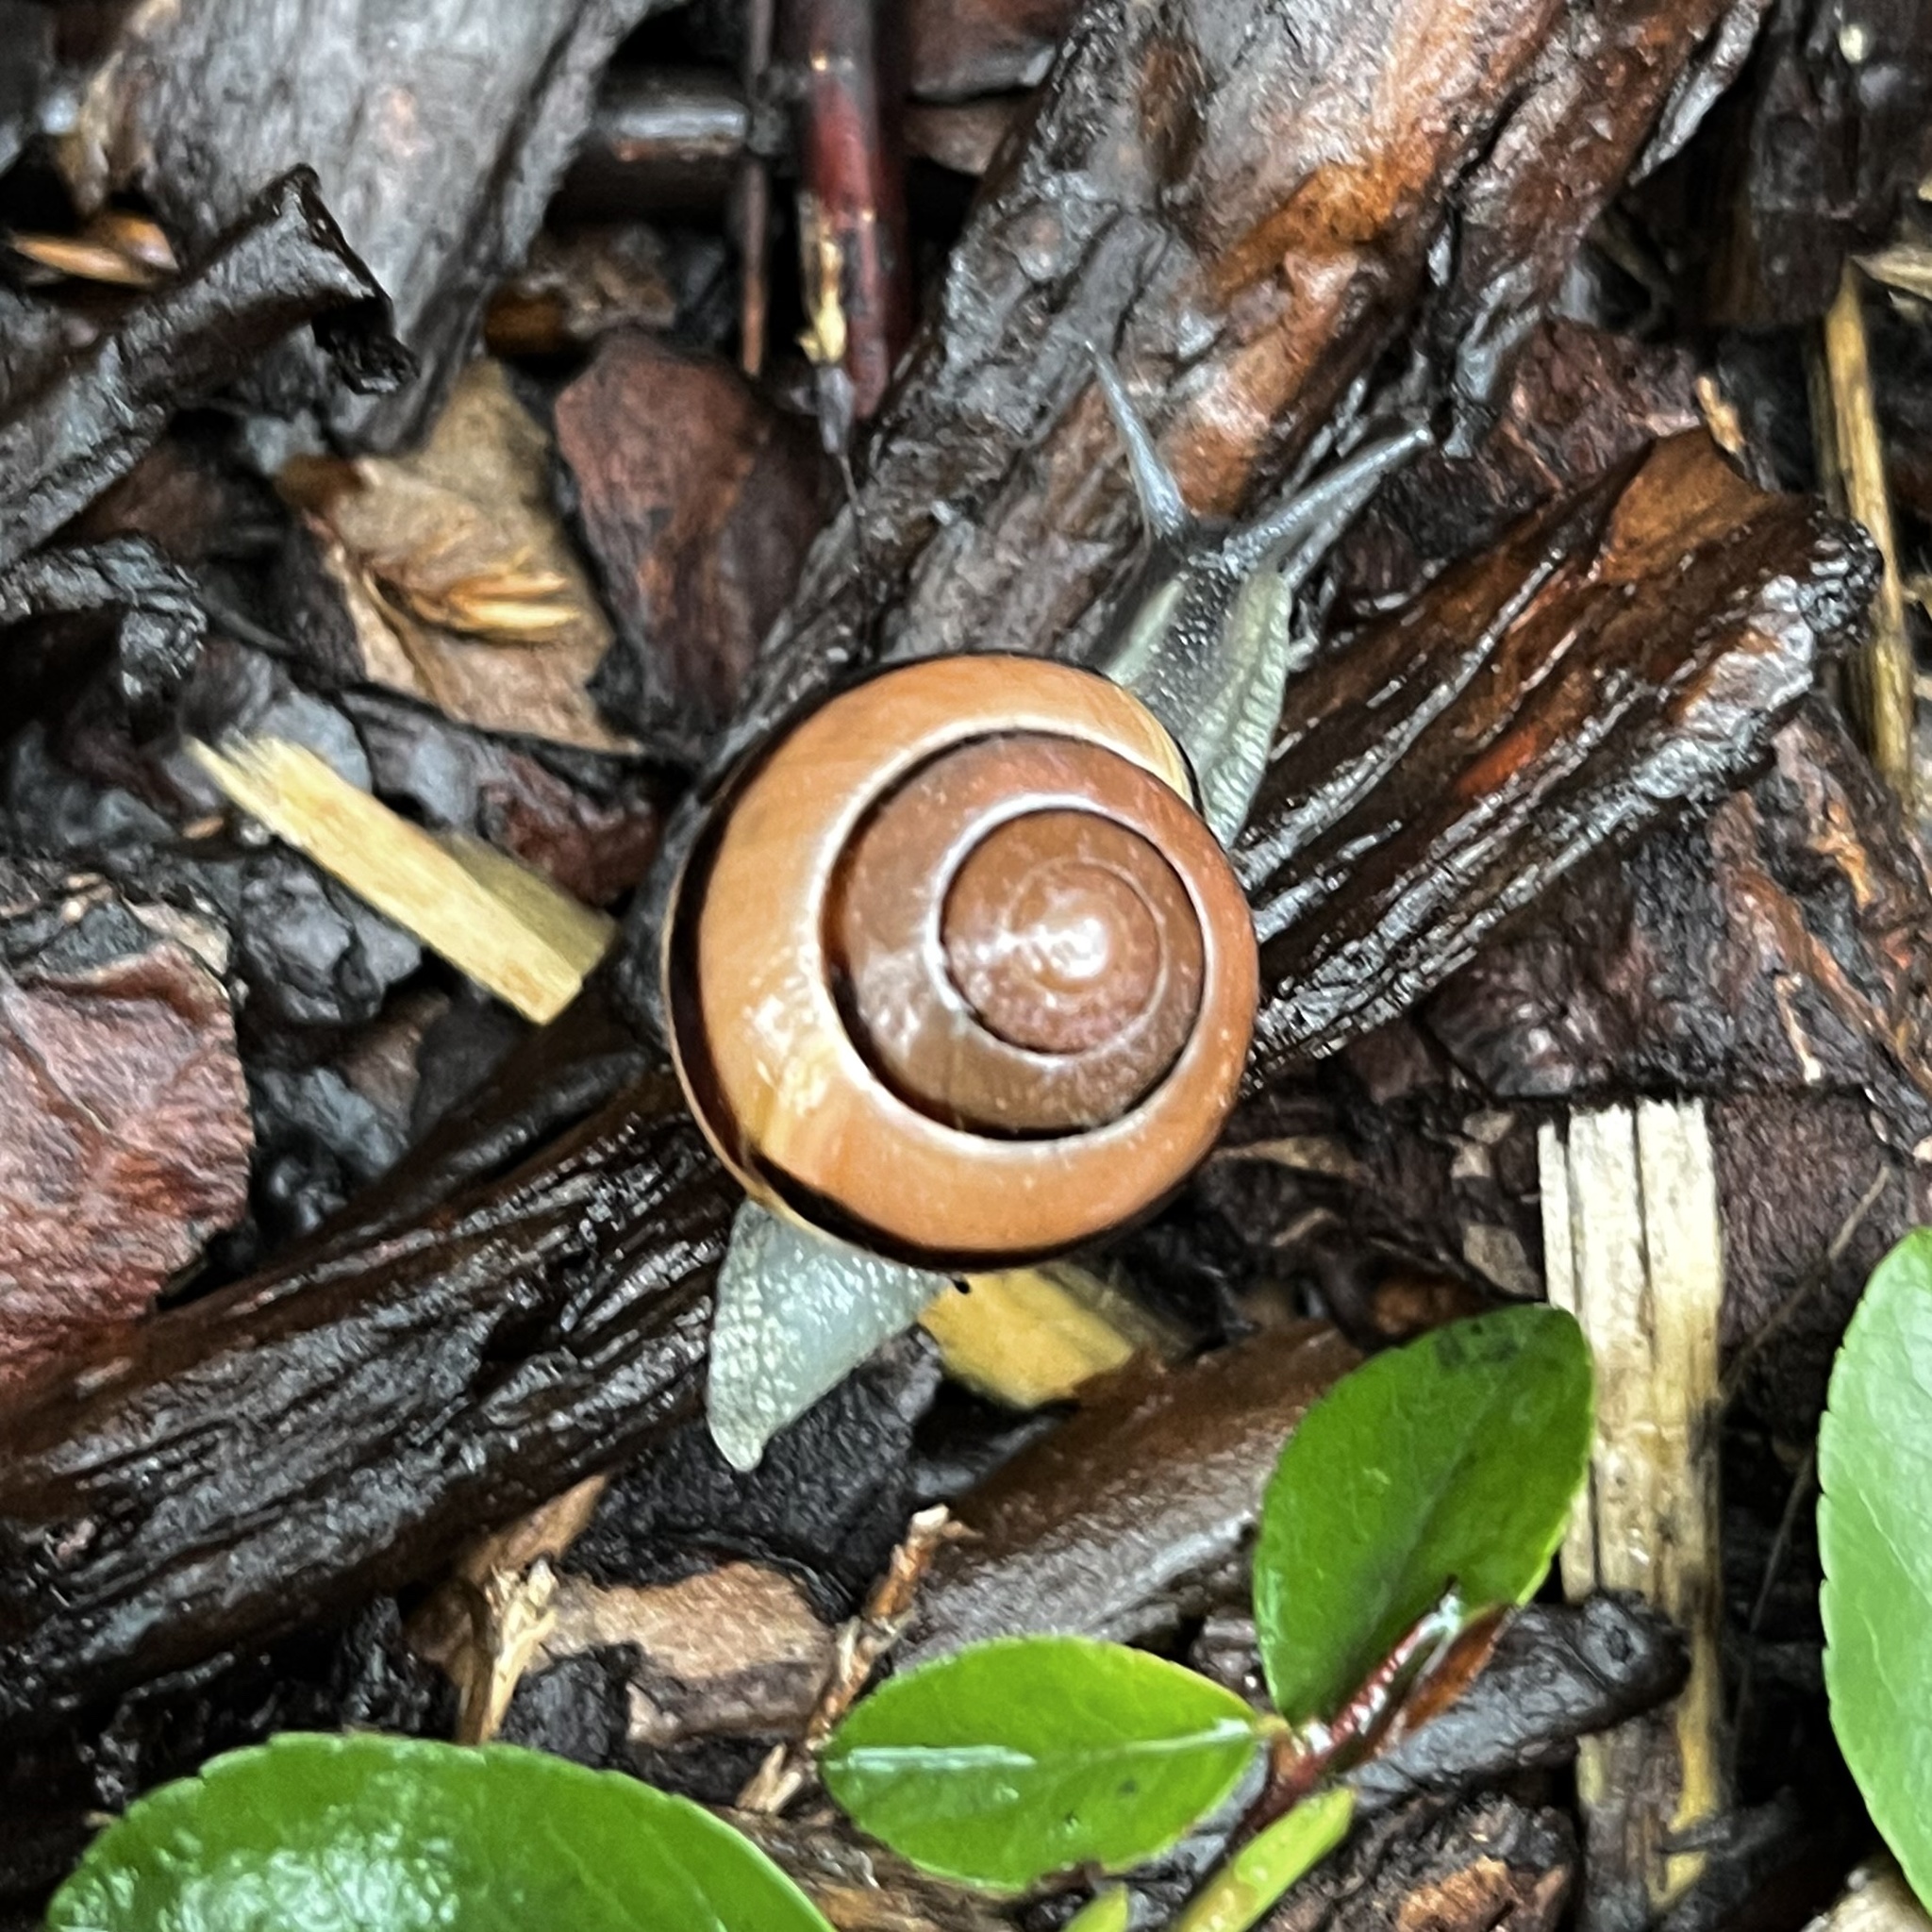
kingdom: Animalia
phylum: Mollusca
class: Gastropoda
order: Stylommatophora
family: Helicidae
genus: Cepaea
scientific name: Cepaea nemoralis
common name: Grovesnail
